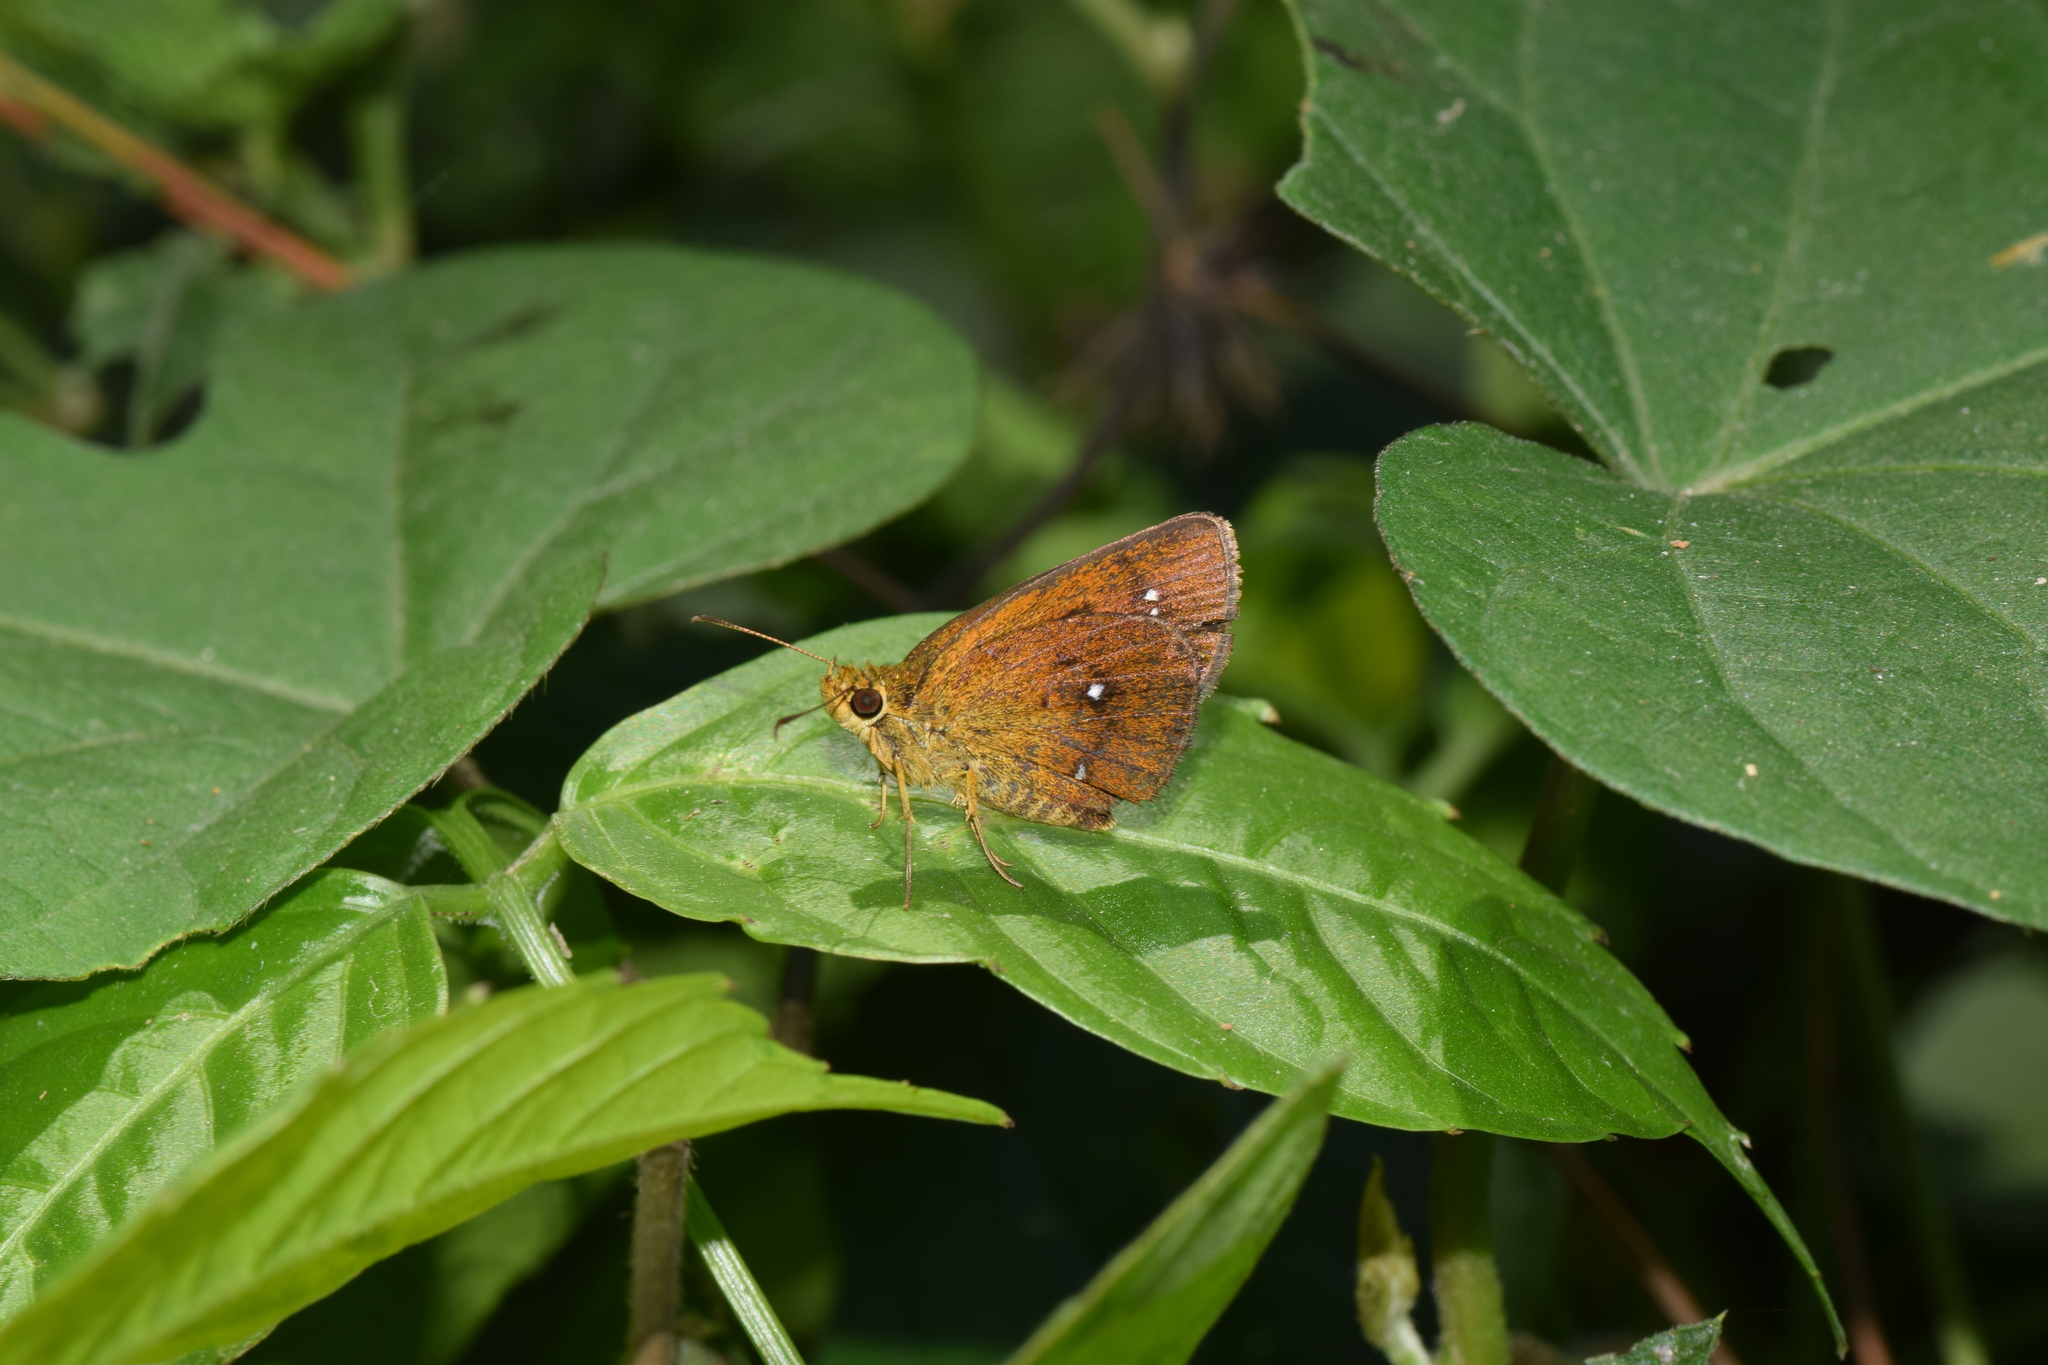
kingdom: Animalia
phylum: Arthropoda
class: Insecta
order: Lepidoptera
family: Hesperiidae
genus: Iambrix
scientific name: Iambrix salsala
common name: Chestnut bob
